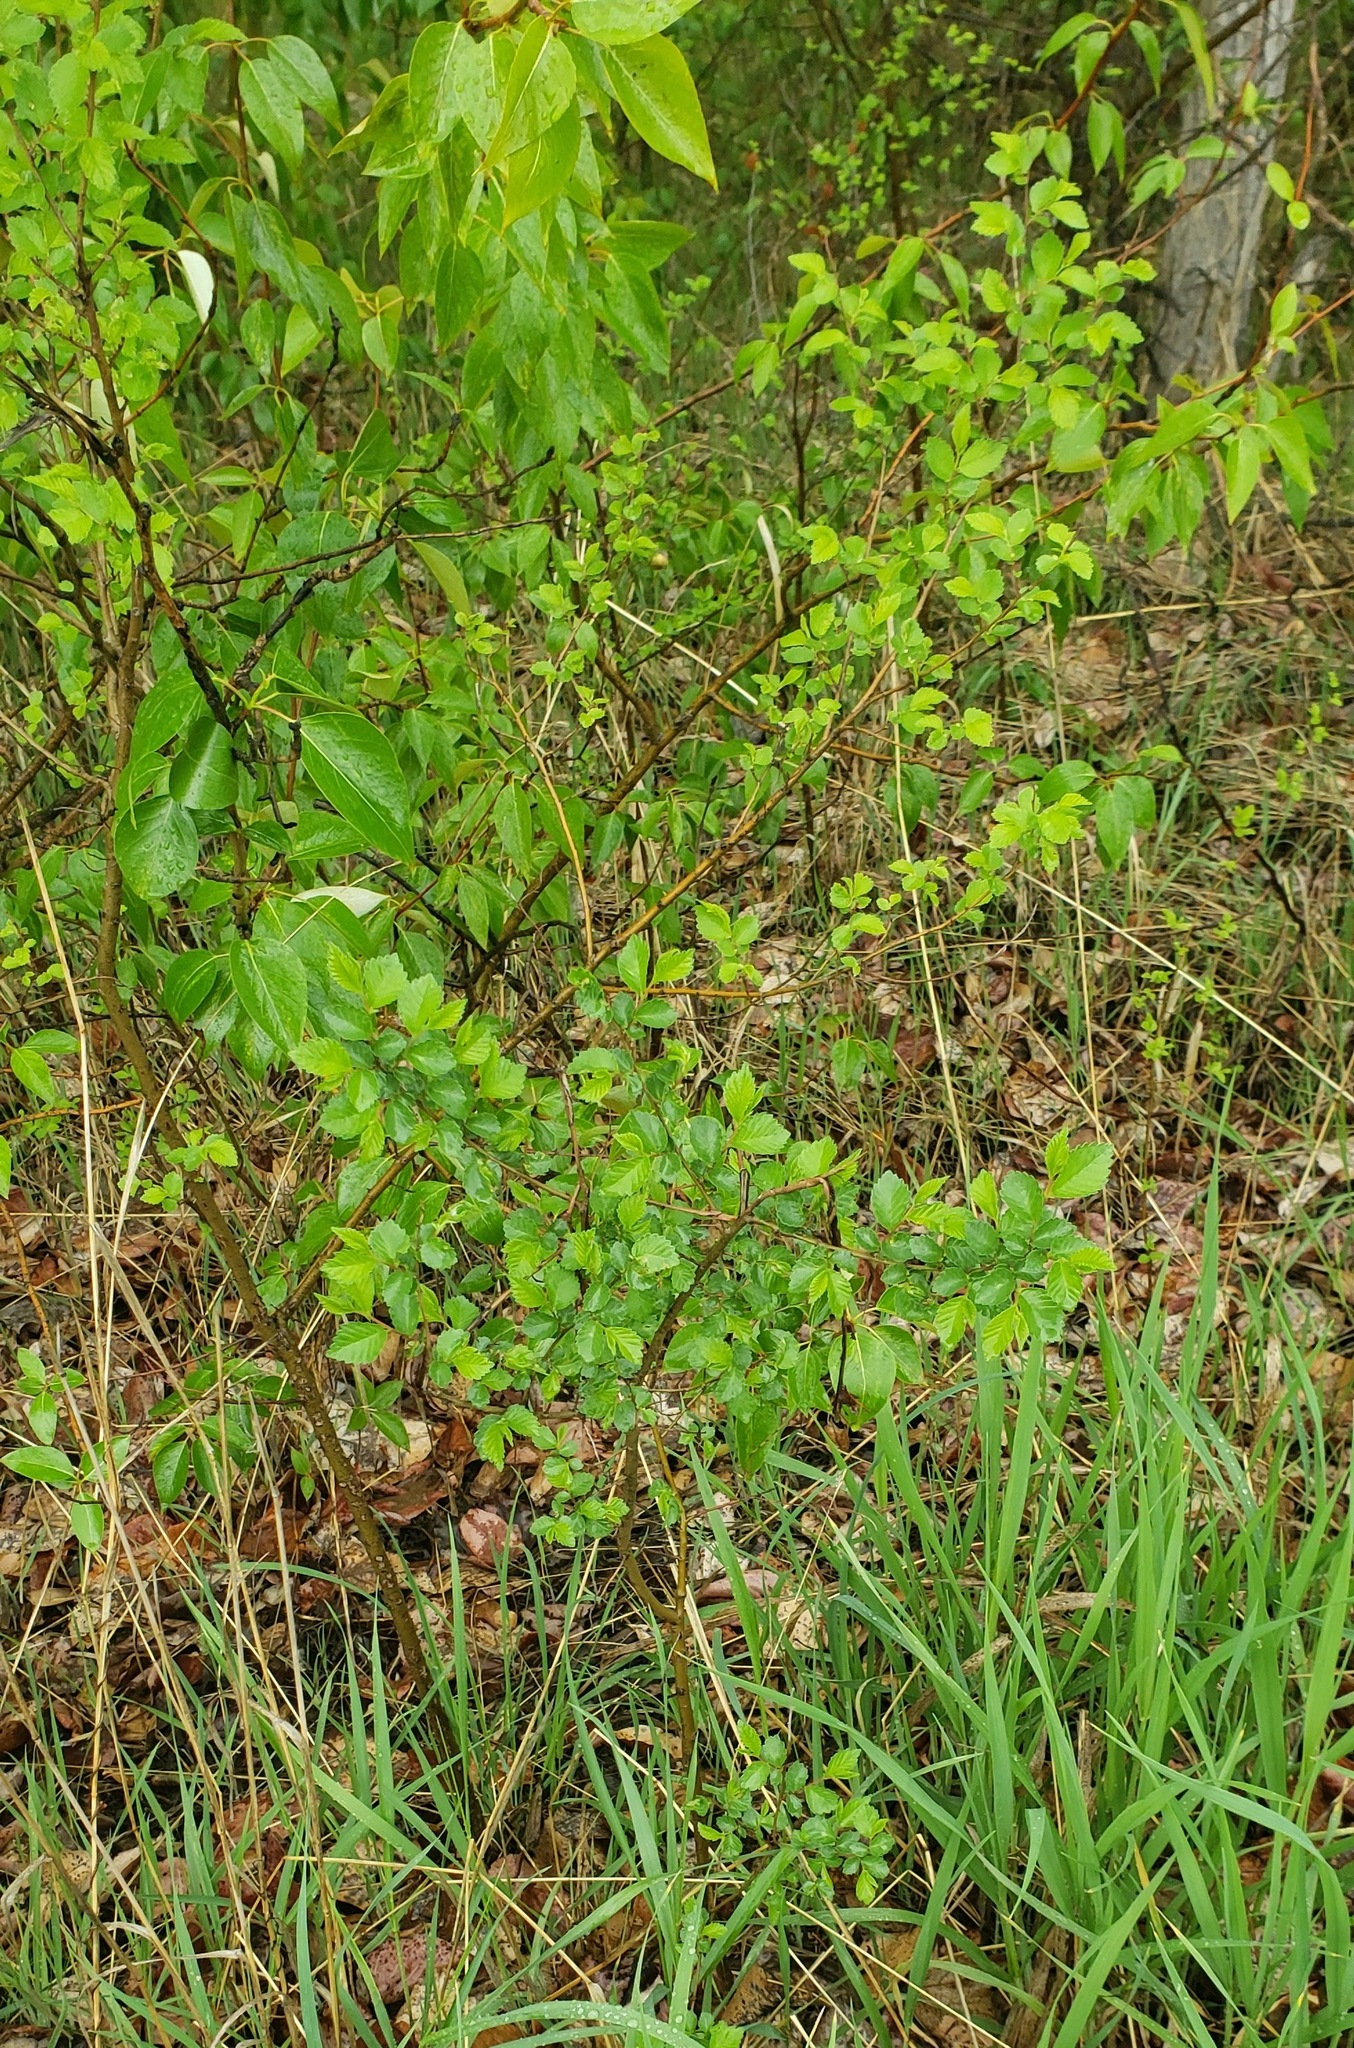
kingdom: Plantae
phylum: Tracheophyta
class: Magnoliopsida
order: Rosales
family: Ulmaceae
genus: Ulmus
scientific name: Ulmus pumila
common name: Siberian elm
